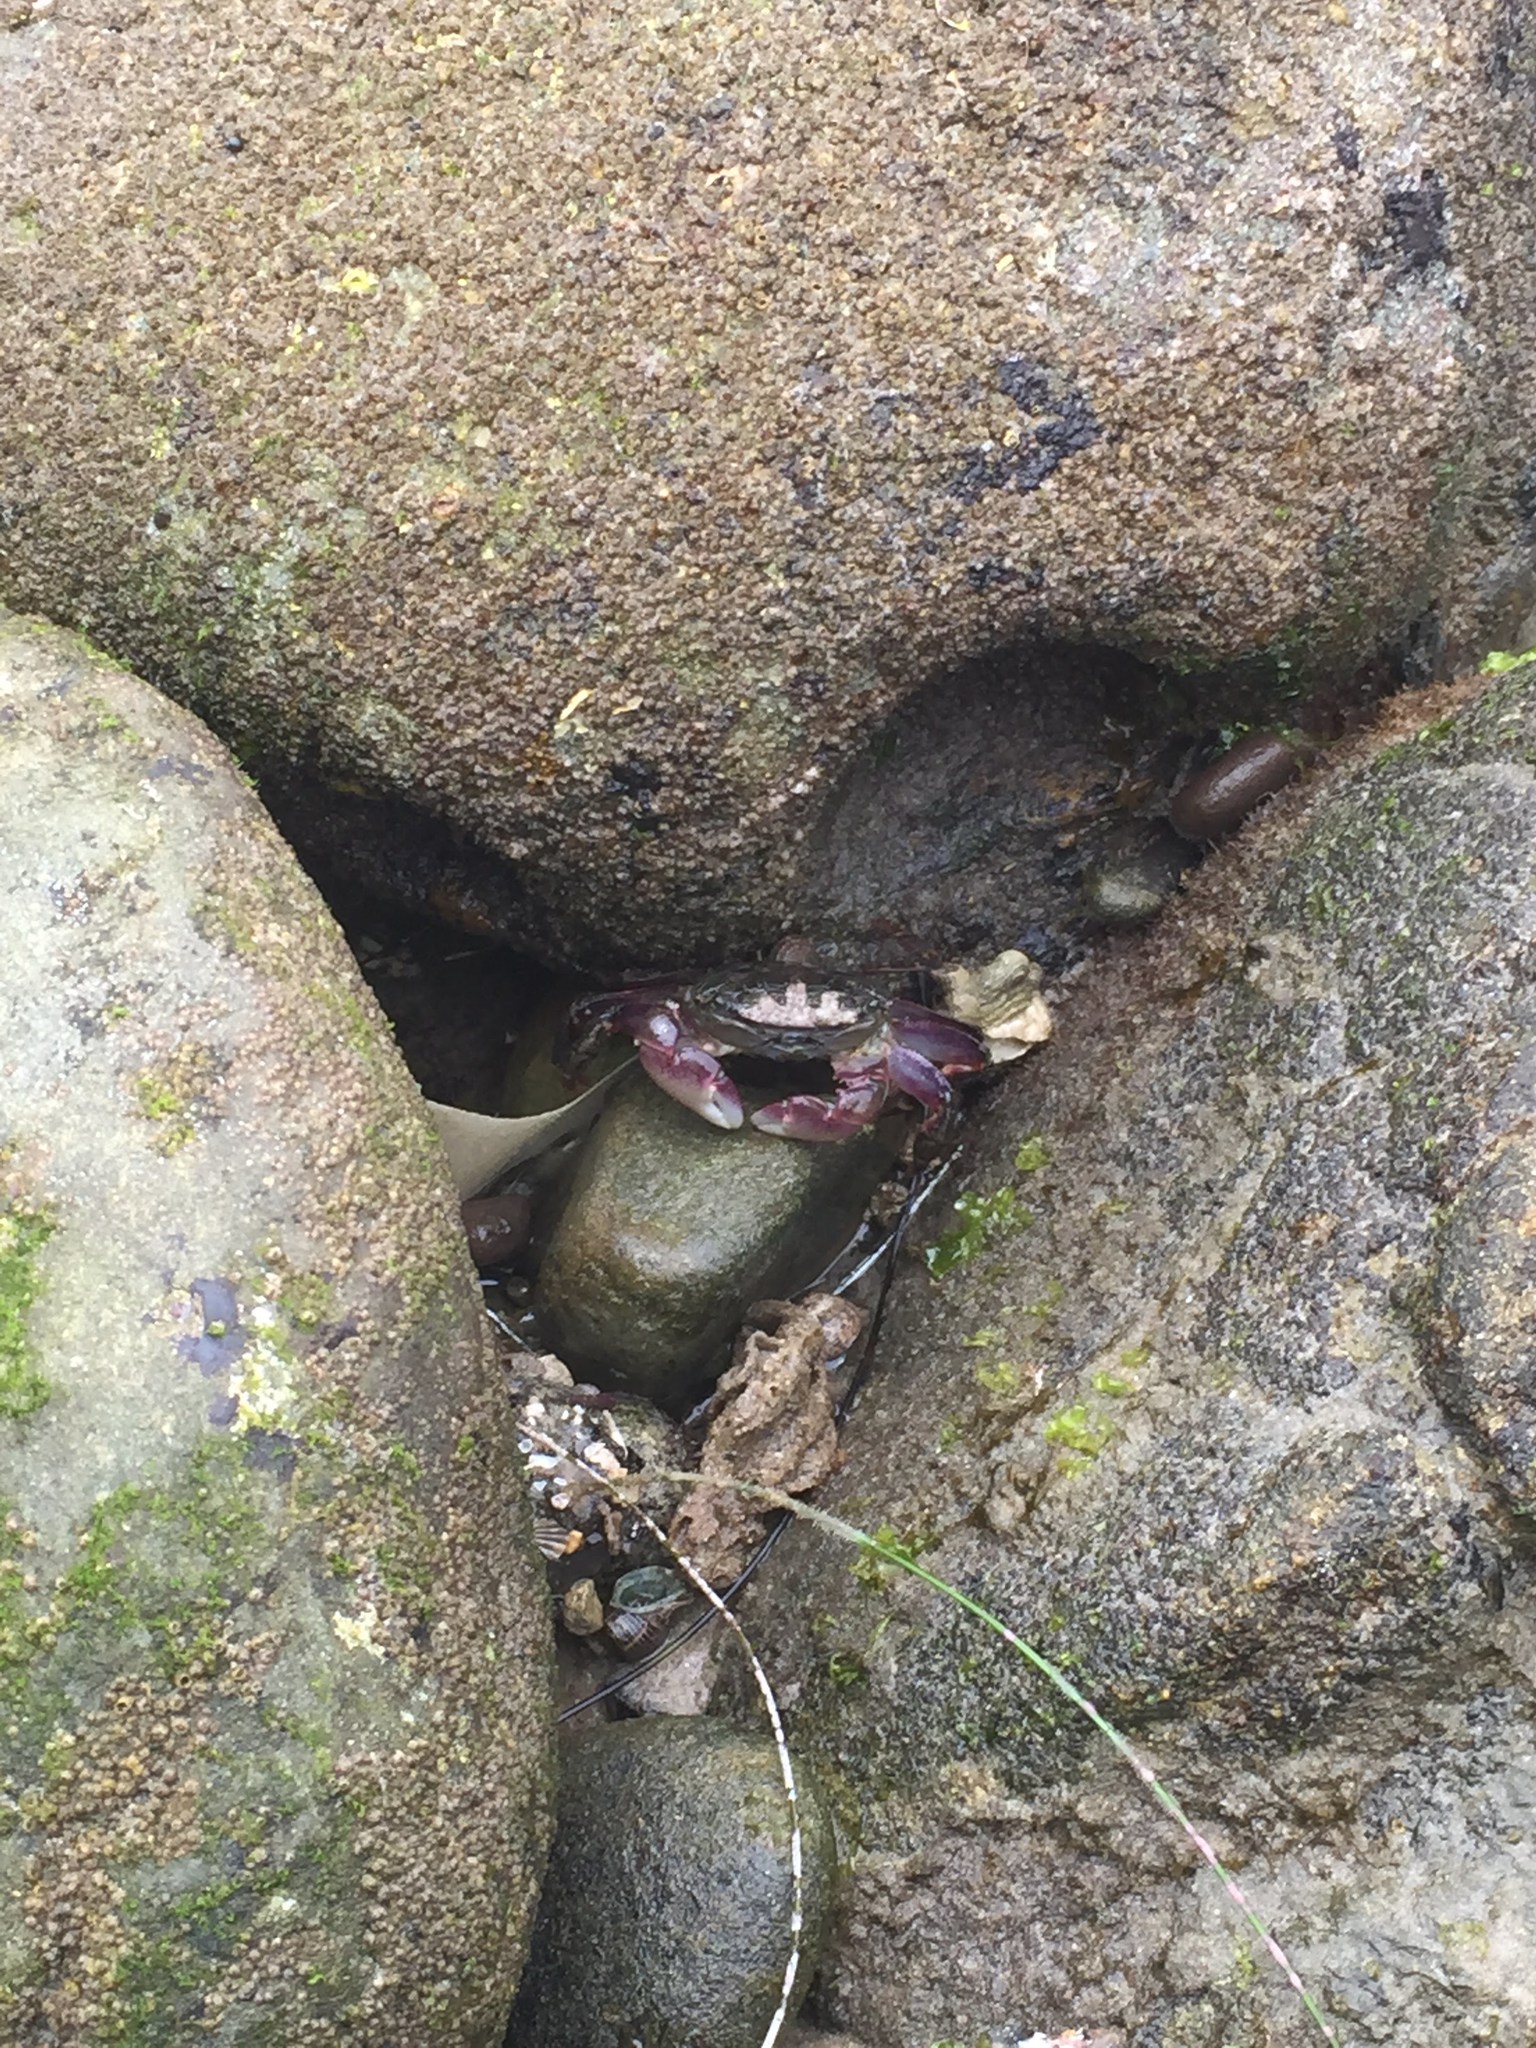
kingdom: Animalia
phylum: Arthropoda
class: Malacostraca
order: Decapoda
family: Grapsidae
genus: Pachygrapsus
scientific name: Pachygrapsus crassipes
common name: Striped shore crab
